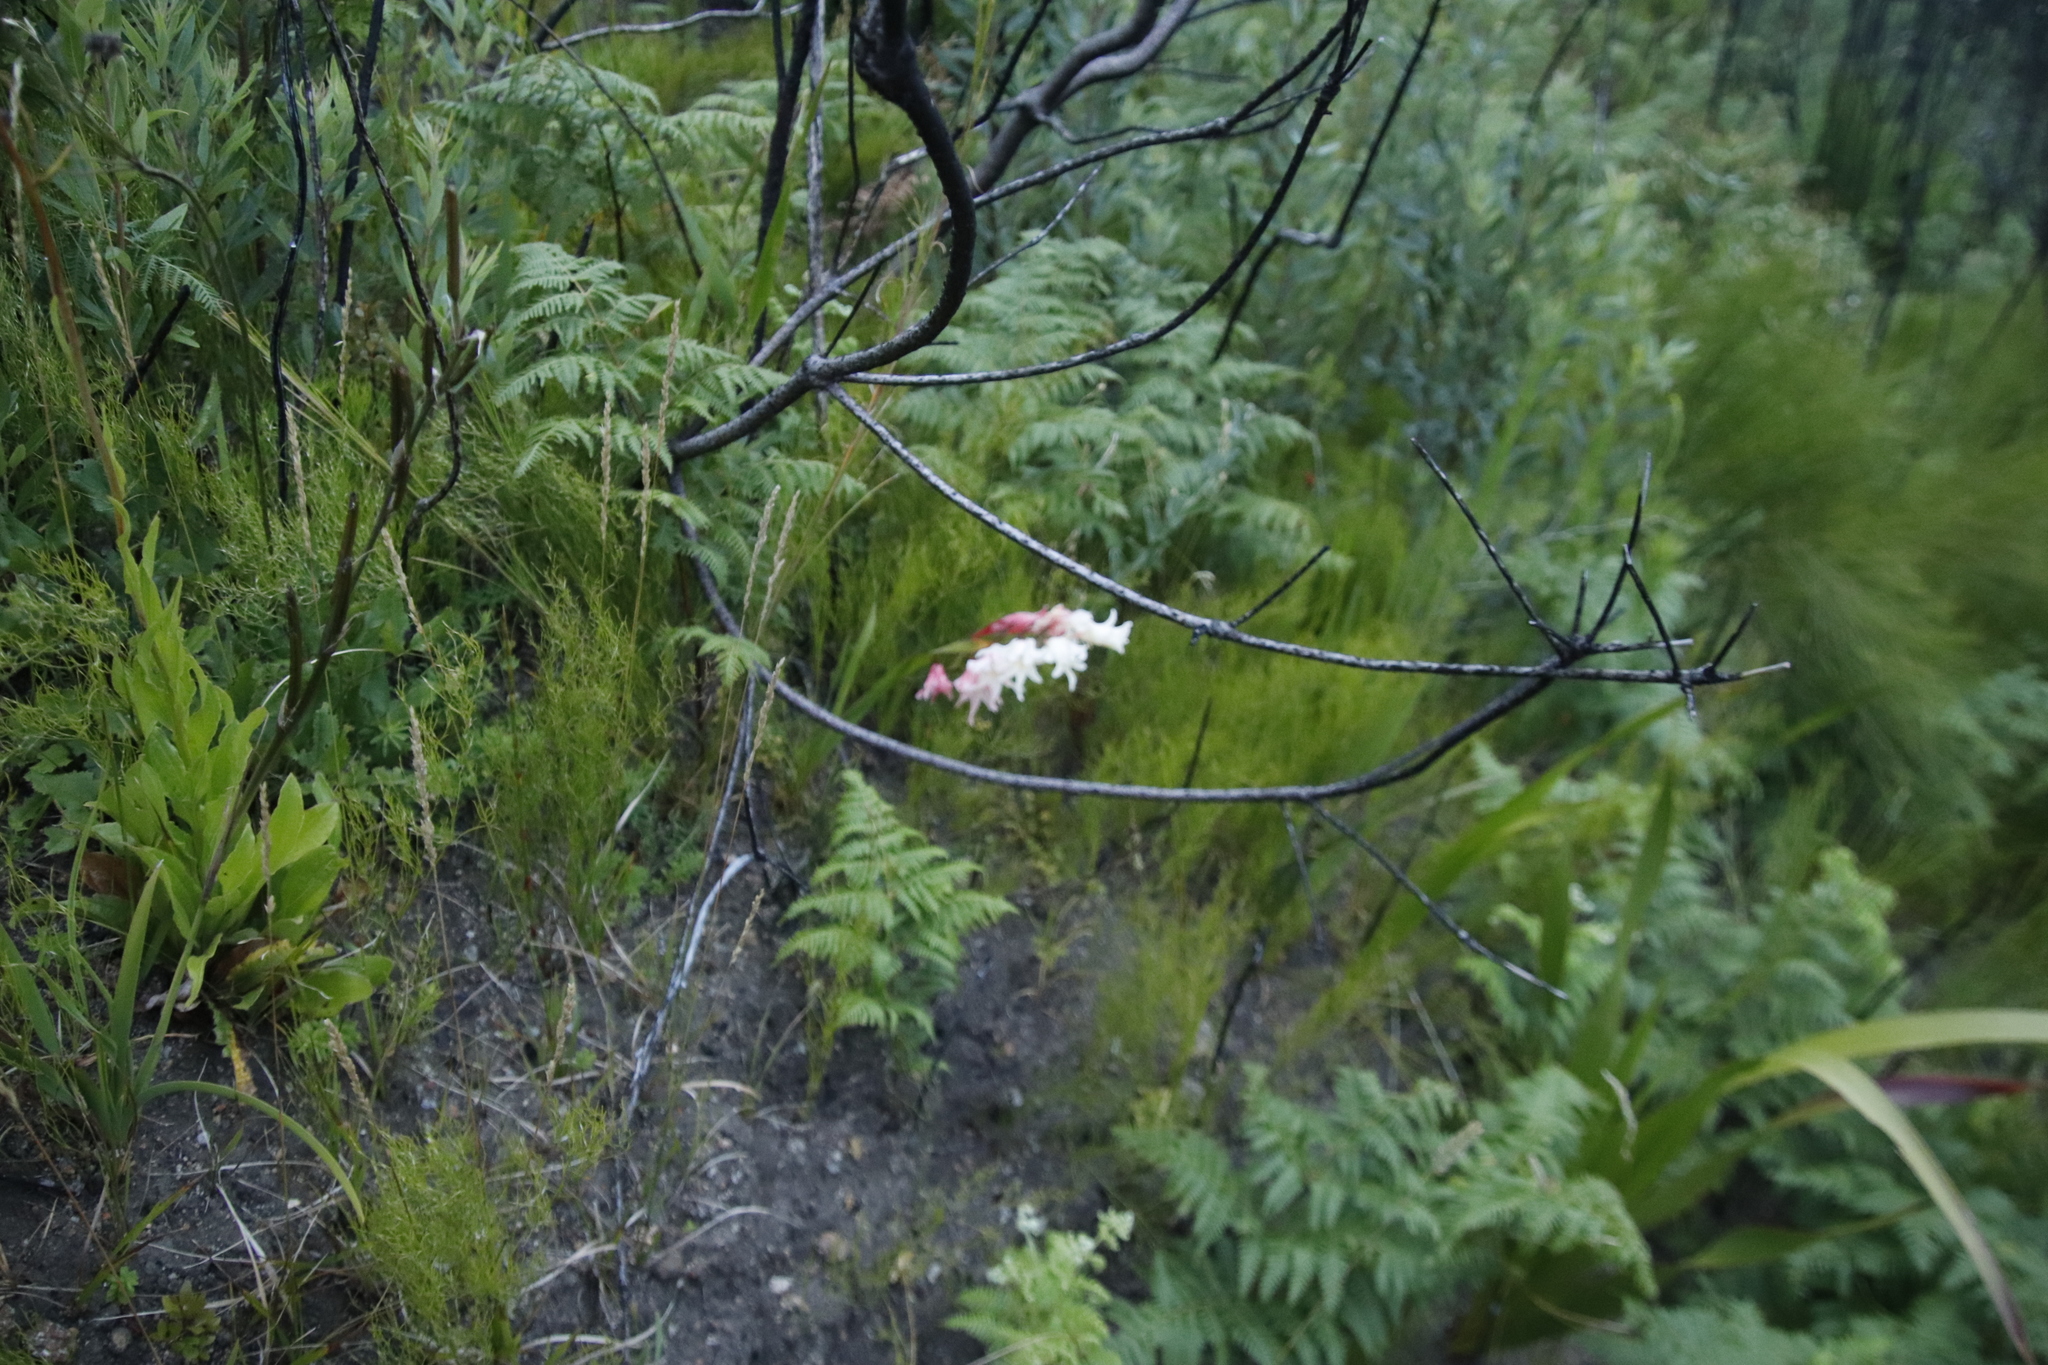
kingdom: Plantae
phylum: Tracheophyta
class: Liliopsida
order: Asparagales
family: Iridaceae
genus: Gladiolus
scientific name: Gladiolus undulatus
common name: Large painted-lady
